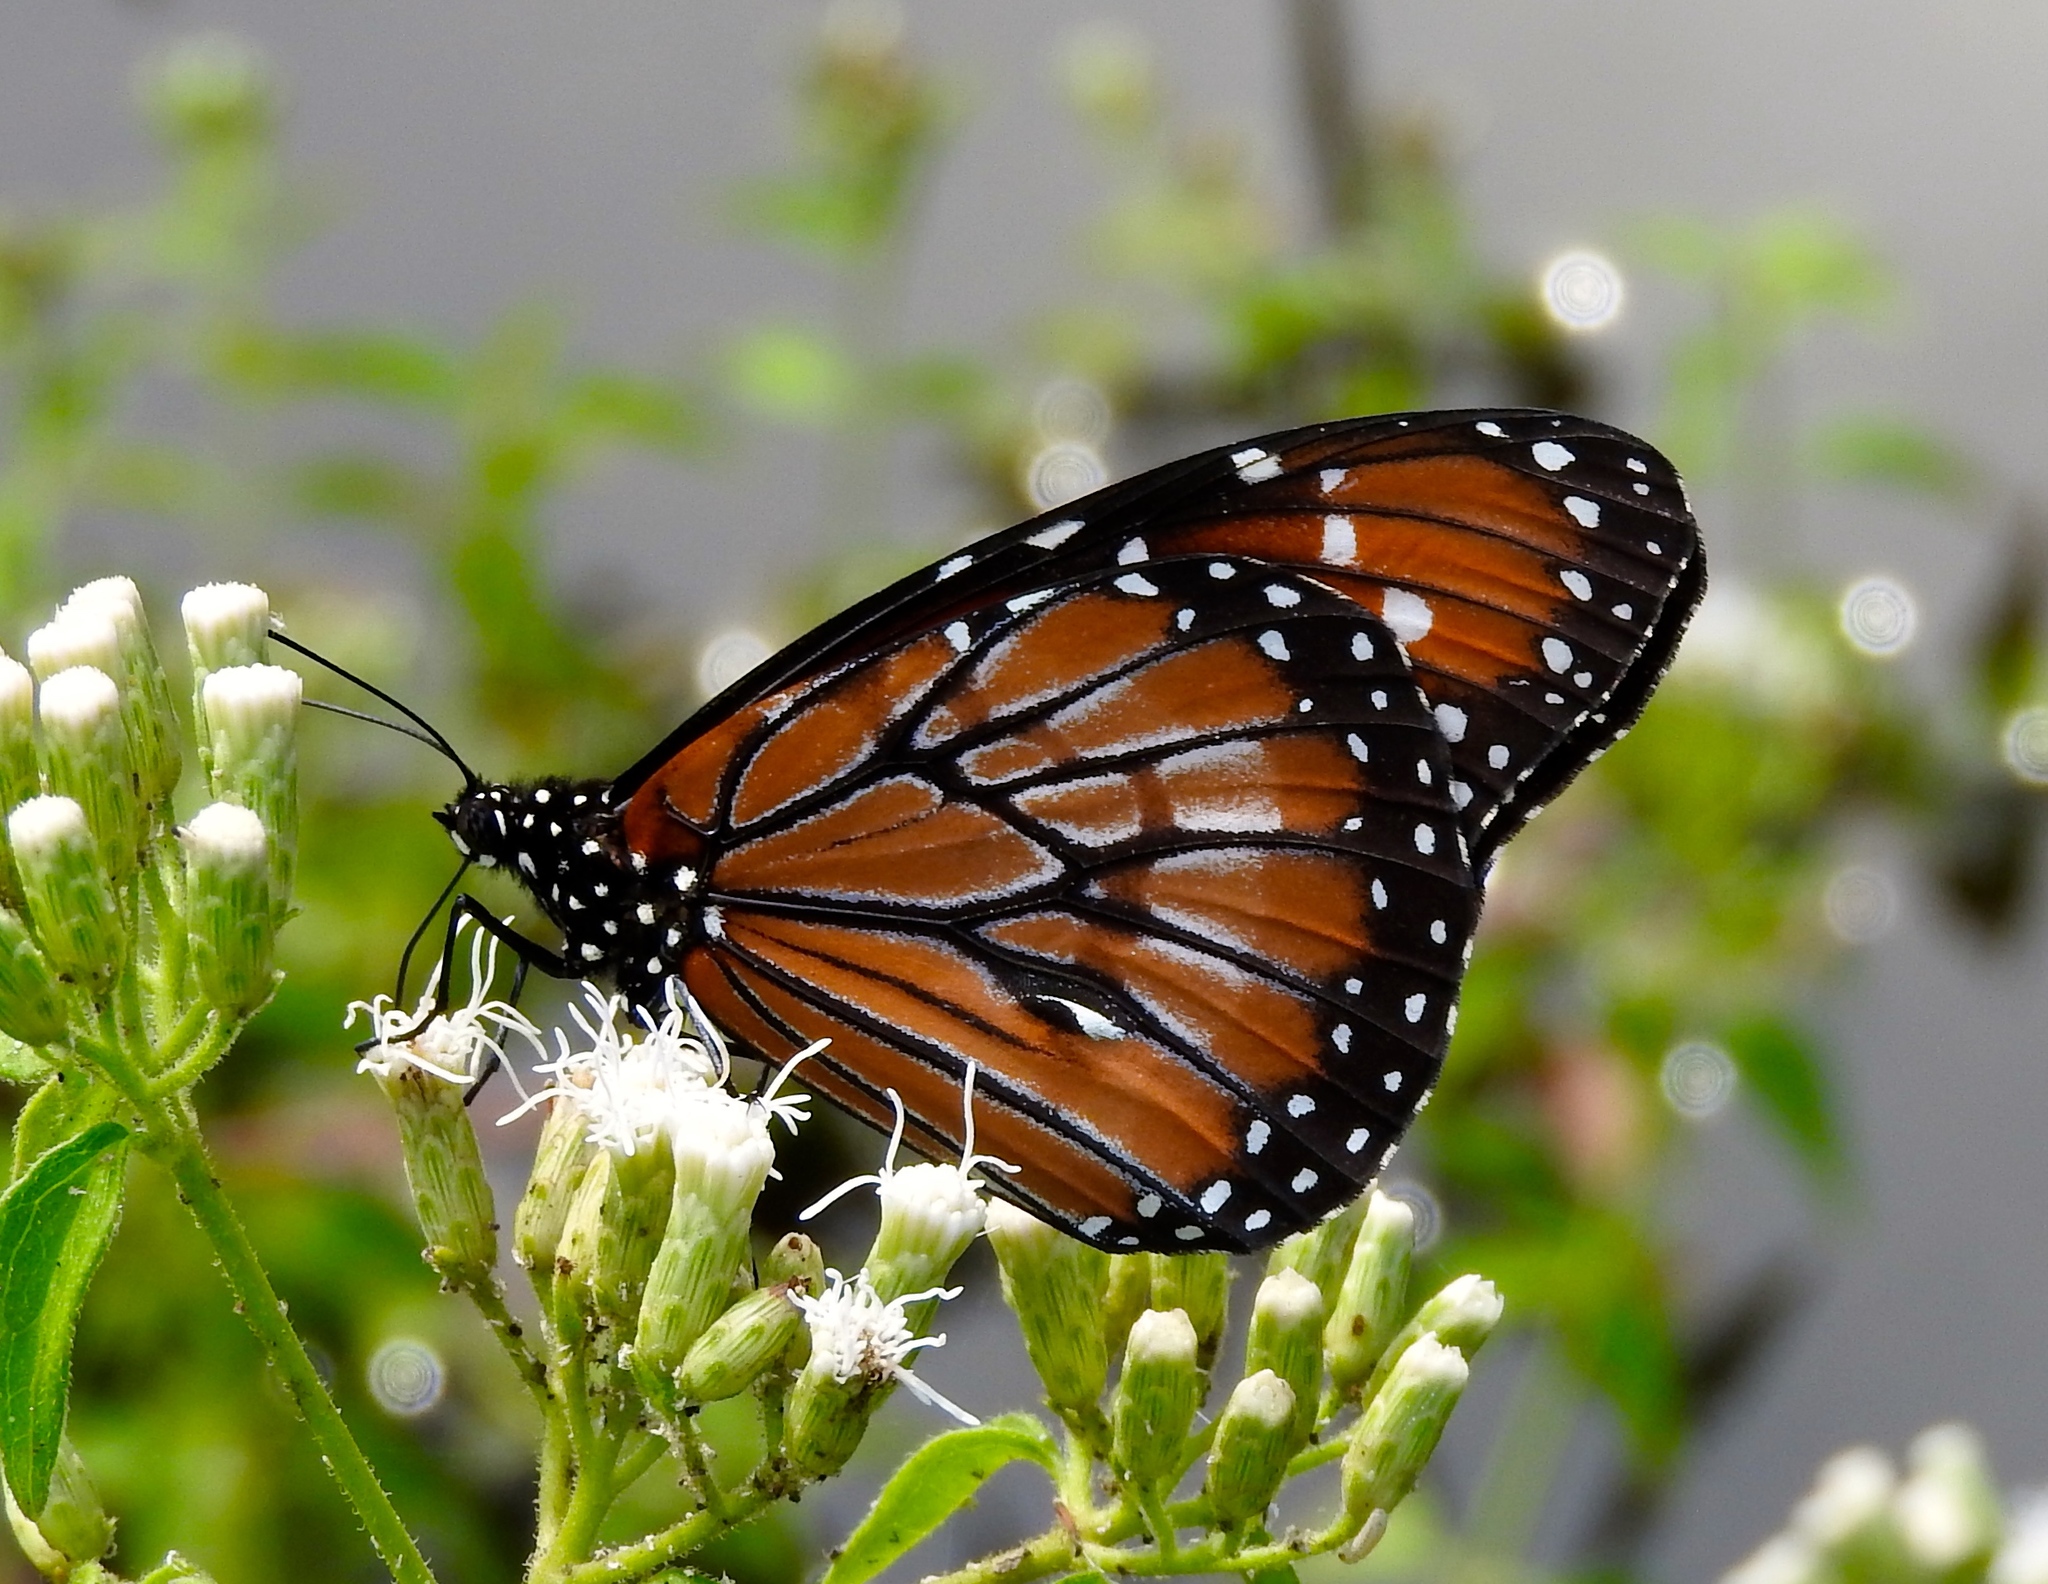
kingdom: Animalia
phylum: Arthropoda
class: Insecta
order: Lepidoptera
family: Nymphalidae
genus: Danaus
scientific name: Danaus eresimus
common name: Soldier
